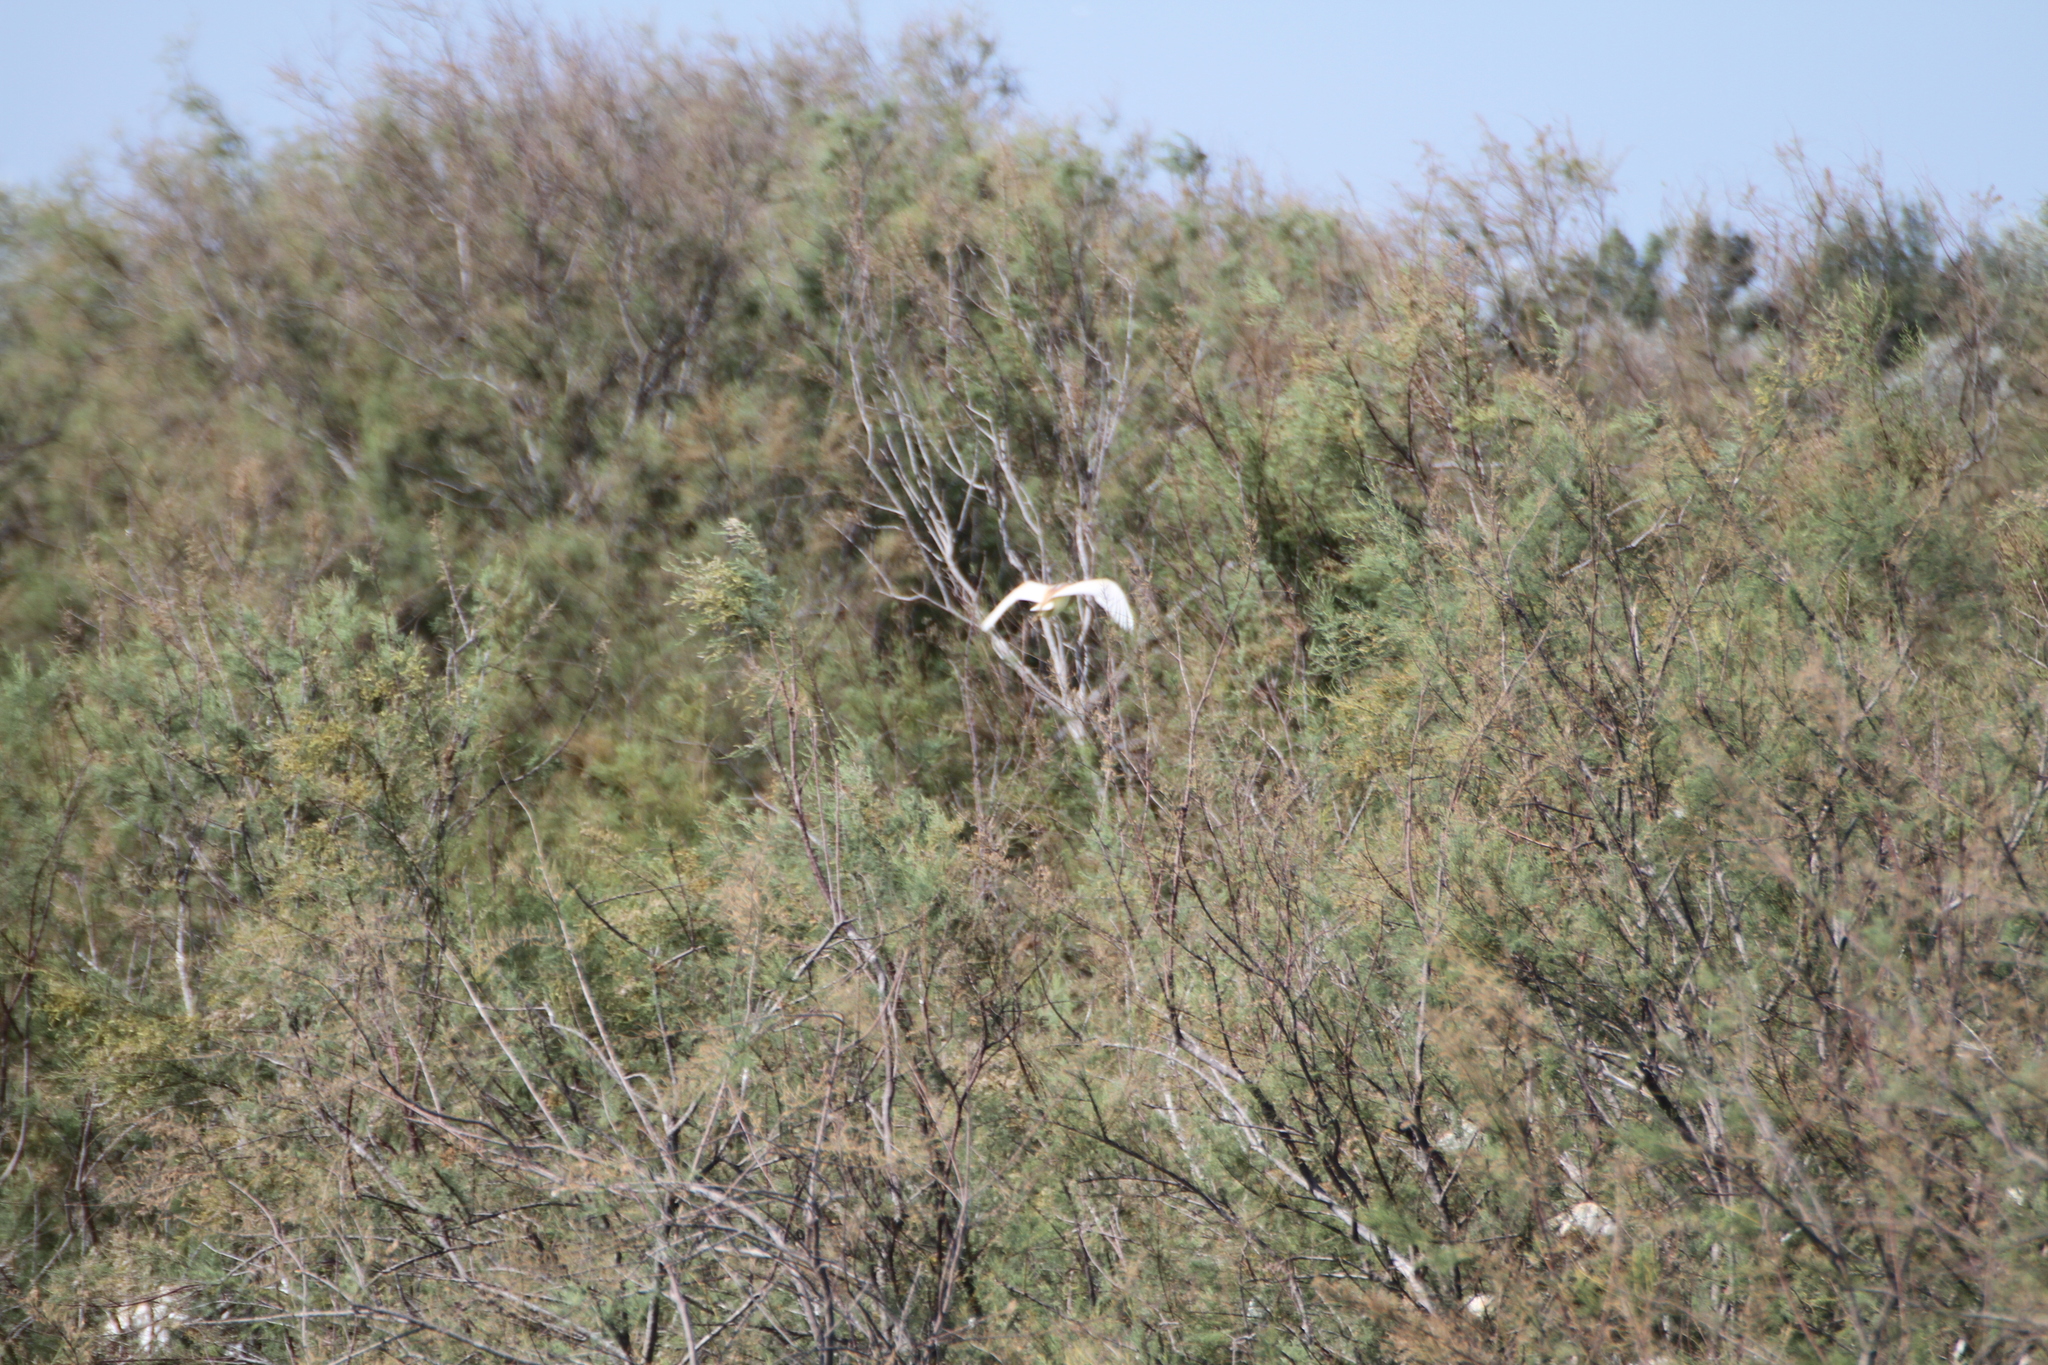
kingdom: Animalia
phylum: Chordata
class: Aves
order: Pelecaniformes
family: Ardeidae
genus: Ardeola
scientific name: Ardeola ralloides
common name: Squacco heron
